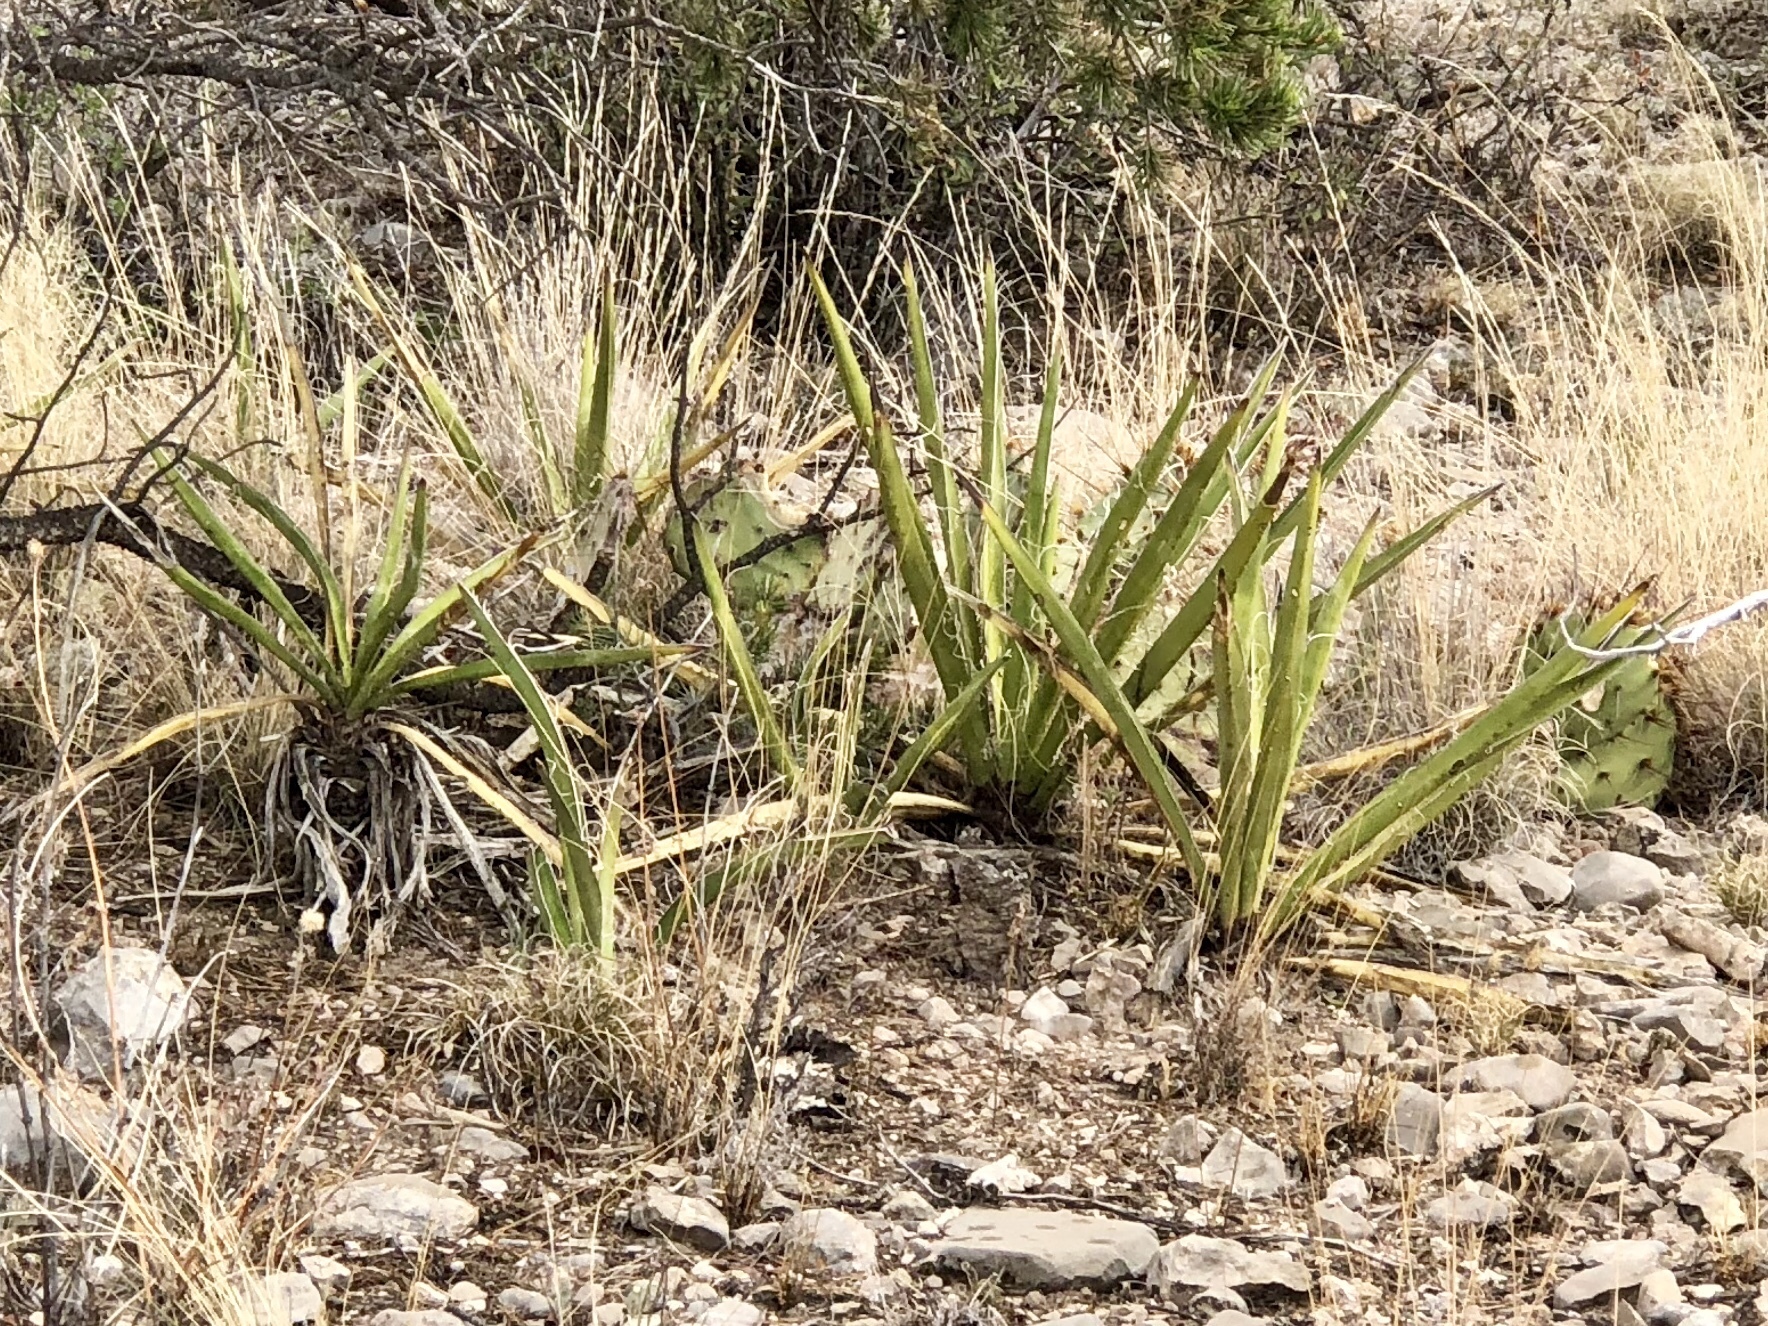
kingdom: Plantae
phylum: Tracheophyta
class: Liliopsida
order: Asparagales
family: Asparagaceae
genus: Yucca
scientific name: Yucca baccata
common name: Banana yucca
